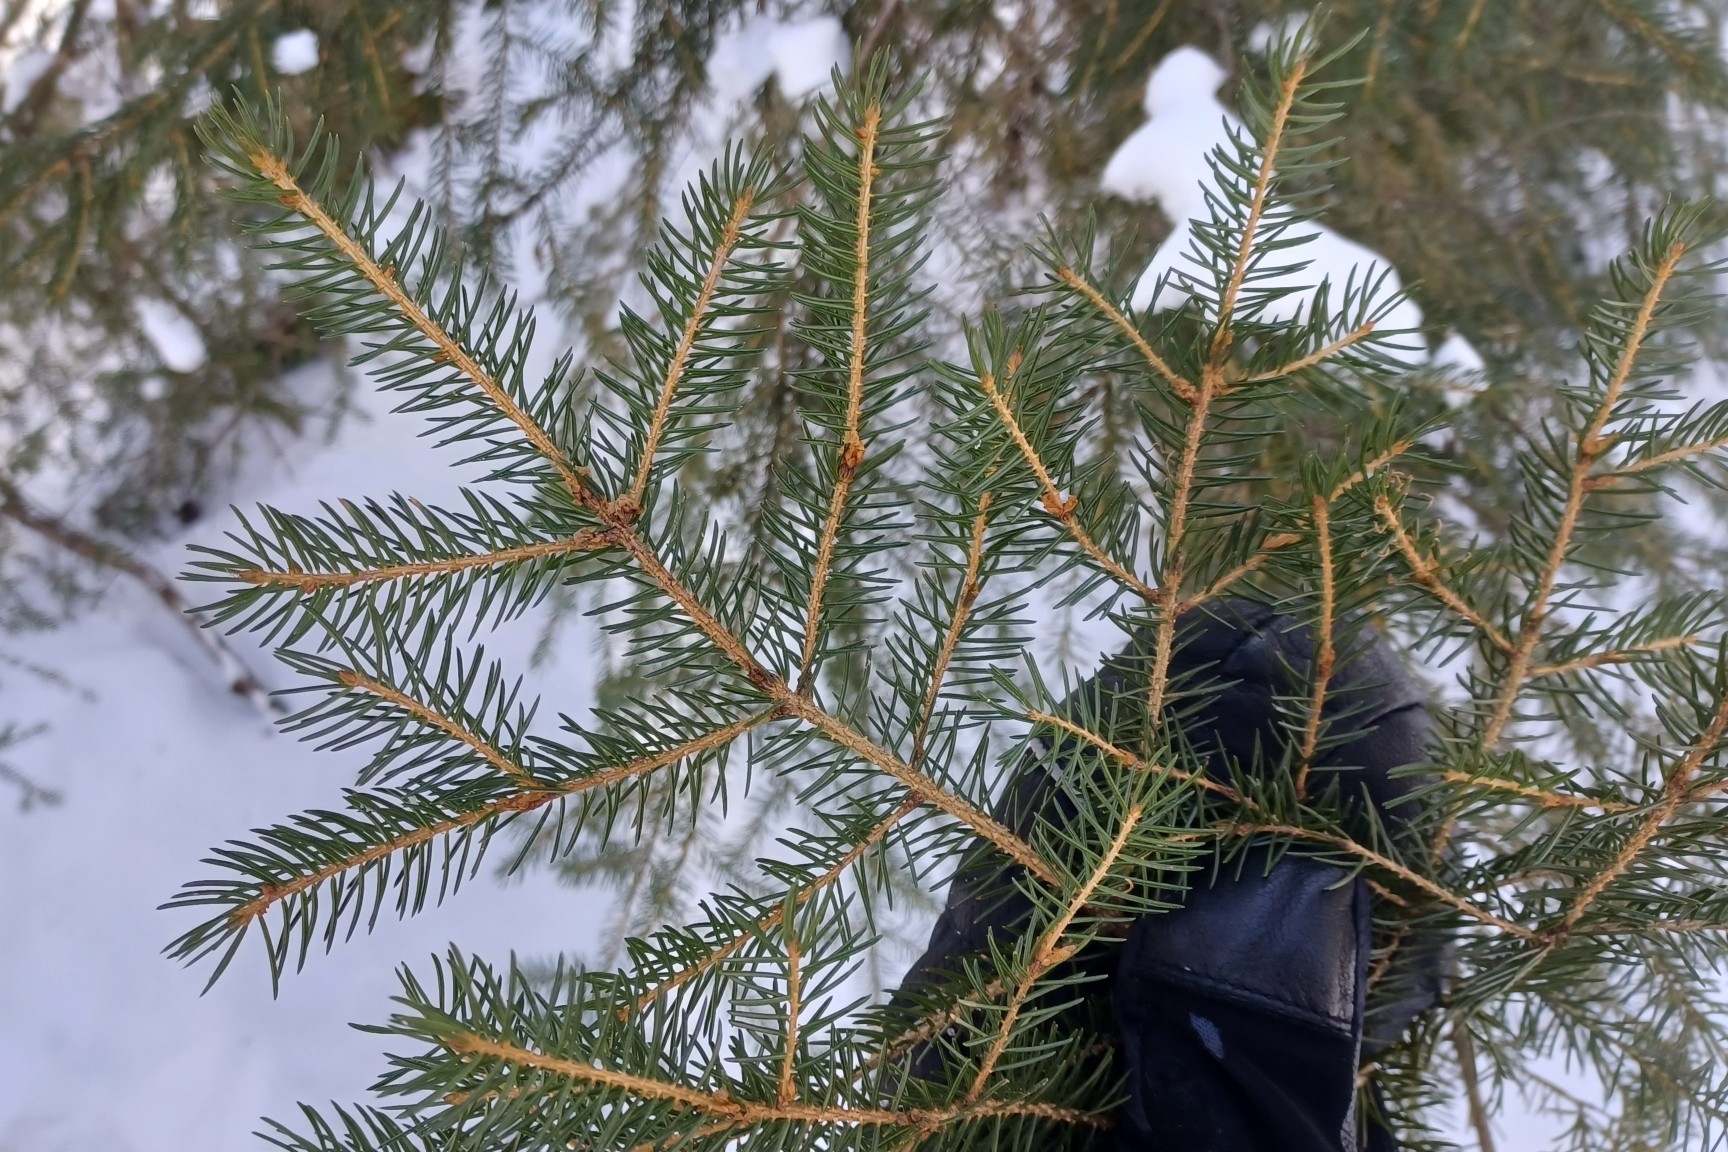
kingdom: Plantae
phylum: Tracheophyta
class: Pinopsida
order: Pinales
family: Pinaceae
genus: Picea
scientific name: Picea rubens
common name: Red spruce
